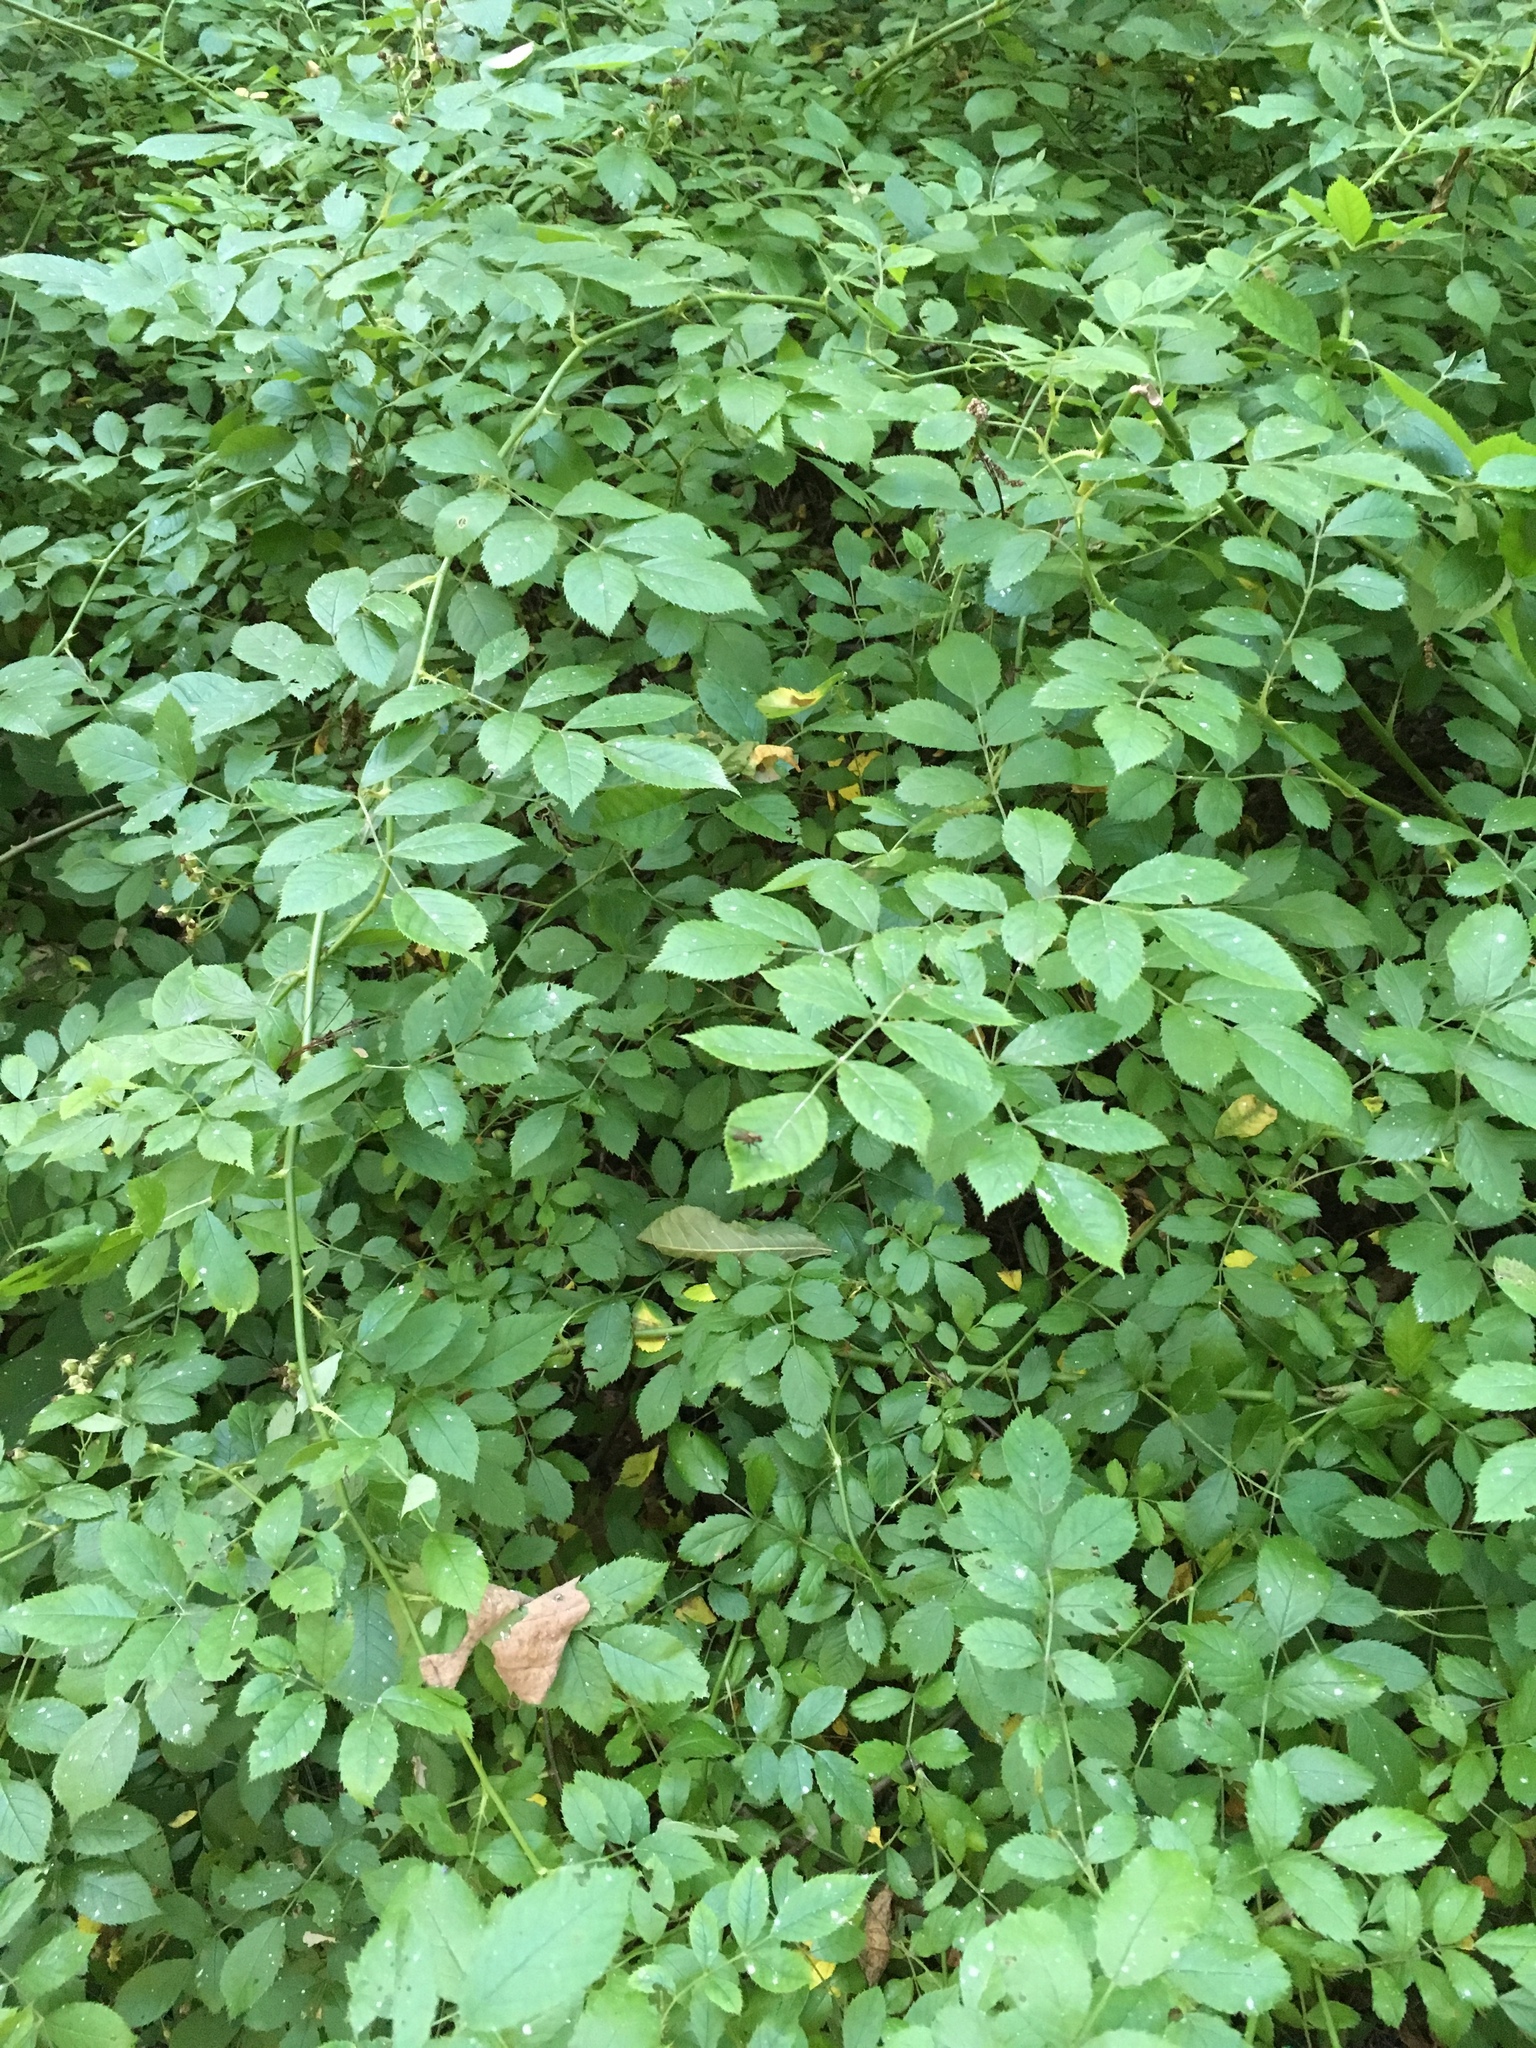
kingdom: Plantae
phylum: Tracheophyta
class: Magnoliopsida
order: Rosales
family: Rosaceae
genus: Rosa
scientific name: Rosa multiflora
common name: Multiflora rose
